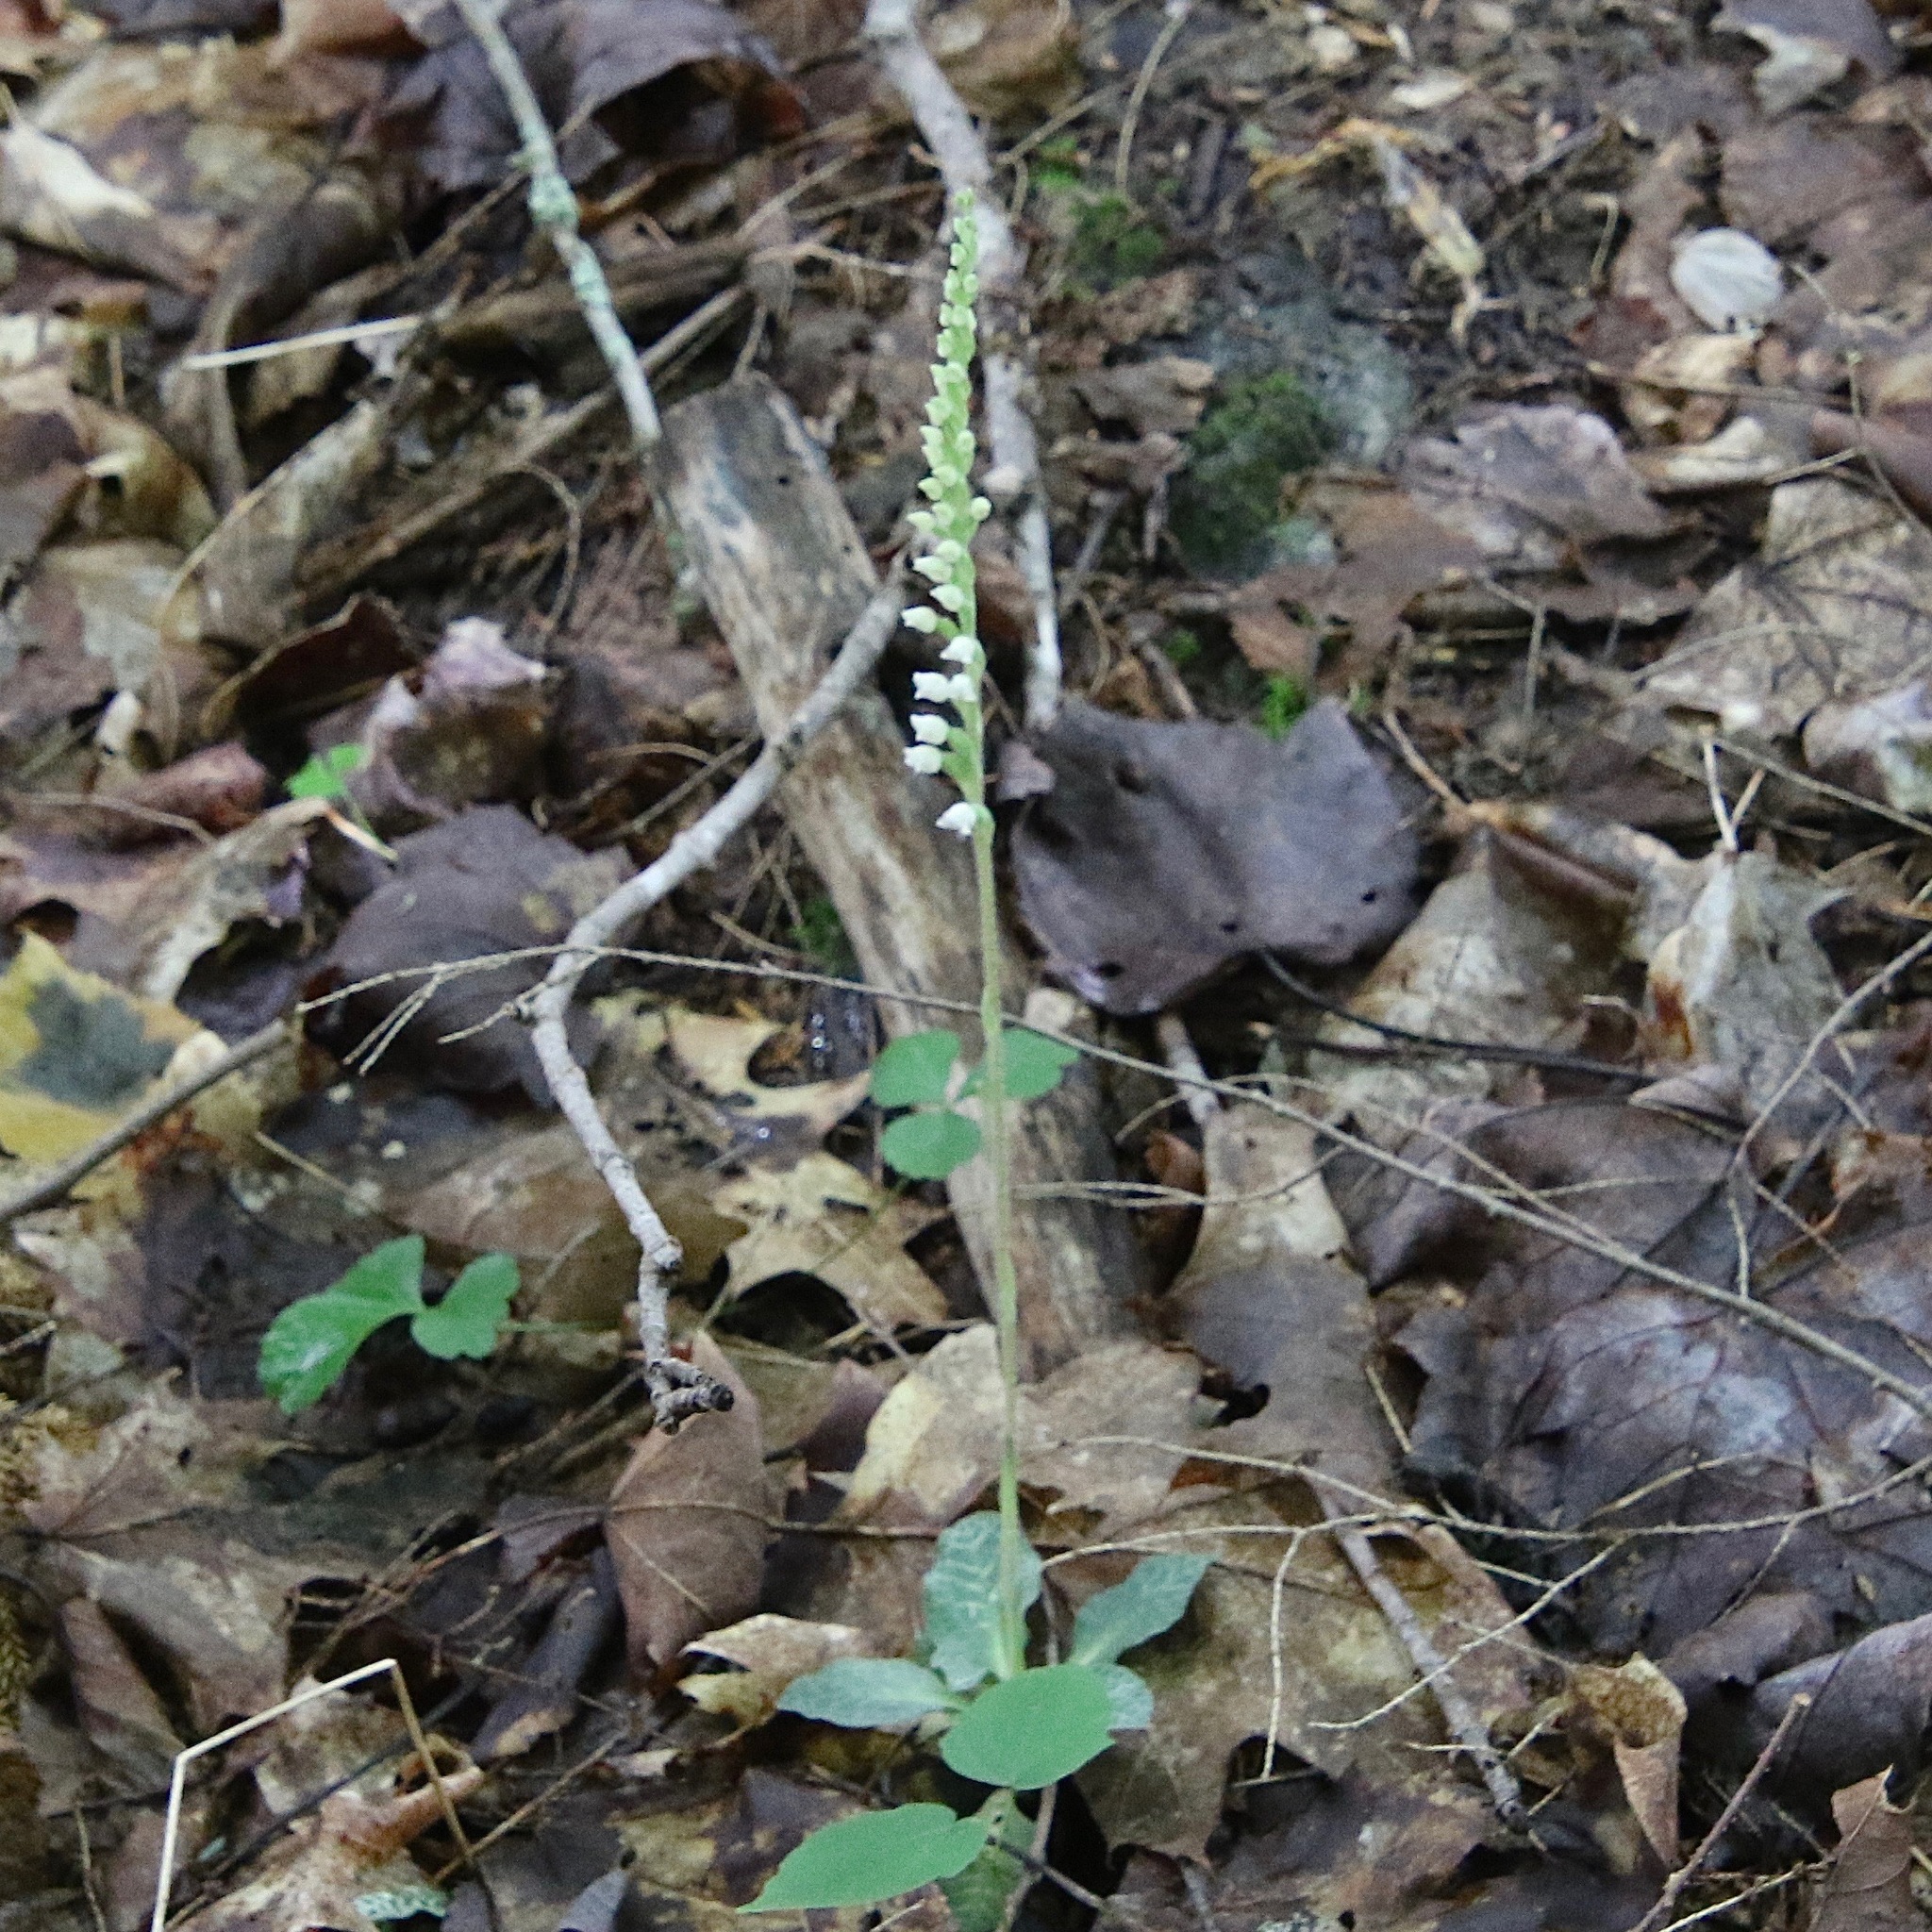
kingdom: Plantae
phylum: Tracheophyta
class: Liliopsida
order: Asparagales
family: Orchidaceae
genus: Goodyera
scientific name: Goodyera tesselata
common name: Checkered rattlesnake-plantain
